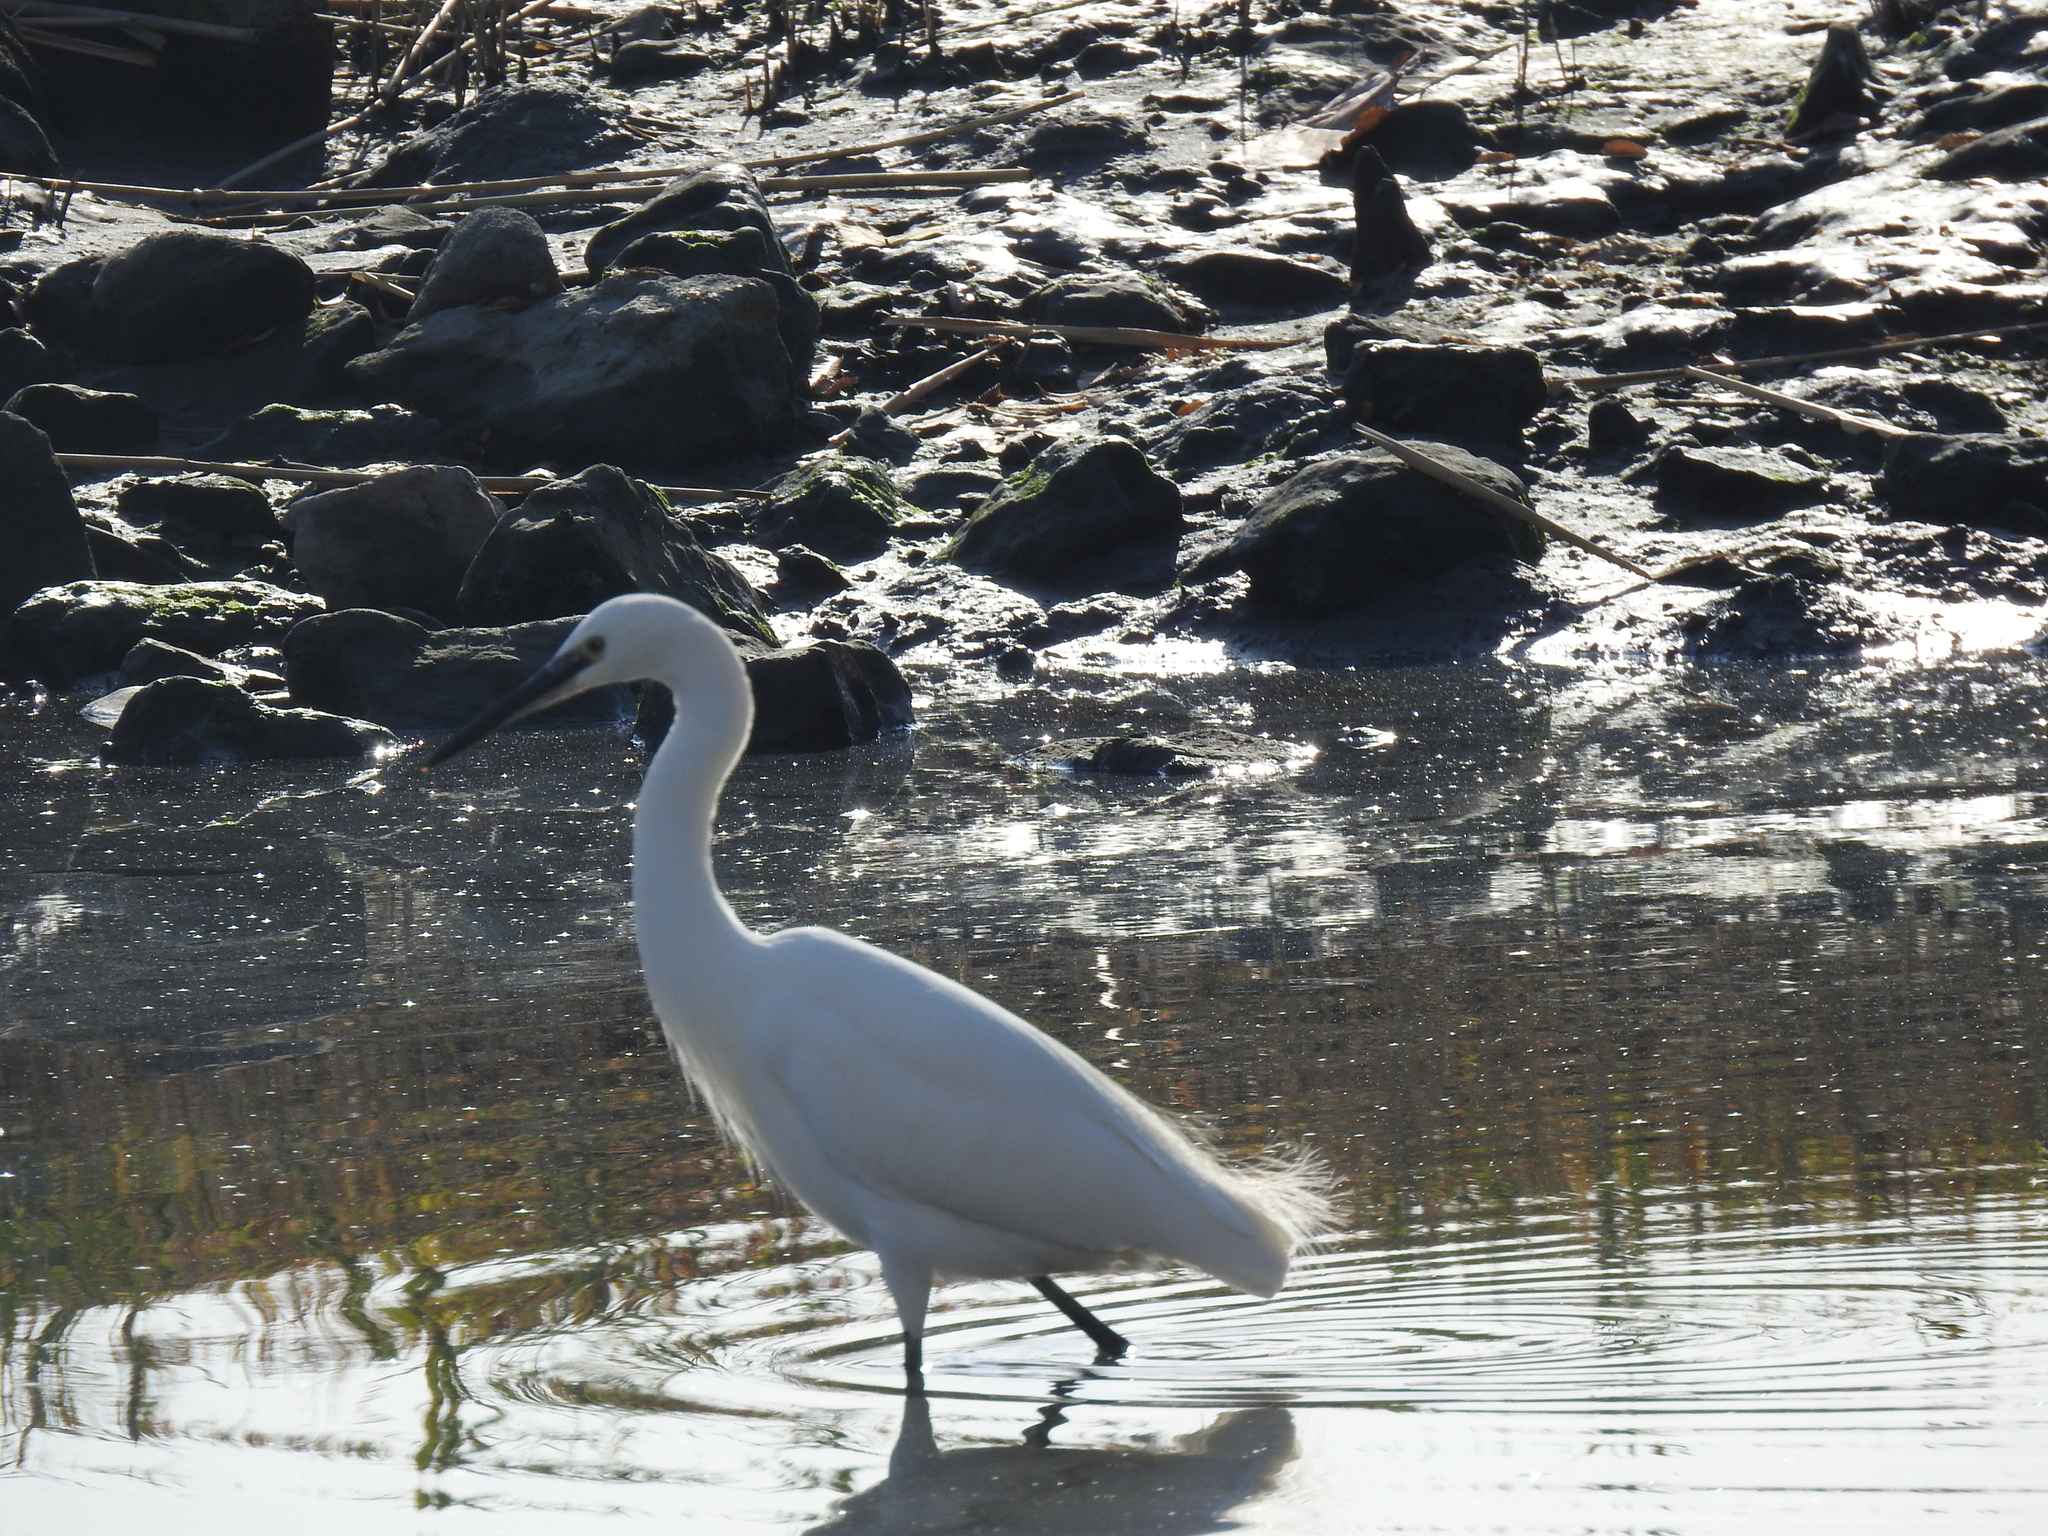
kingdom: Animalia
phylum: Chordata
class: Aves
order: Pelecaniformes
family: Ardeidae
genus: Egretta
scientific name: Egretta garzetta
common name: Little egret
